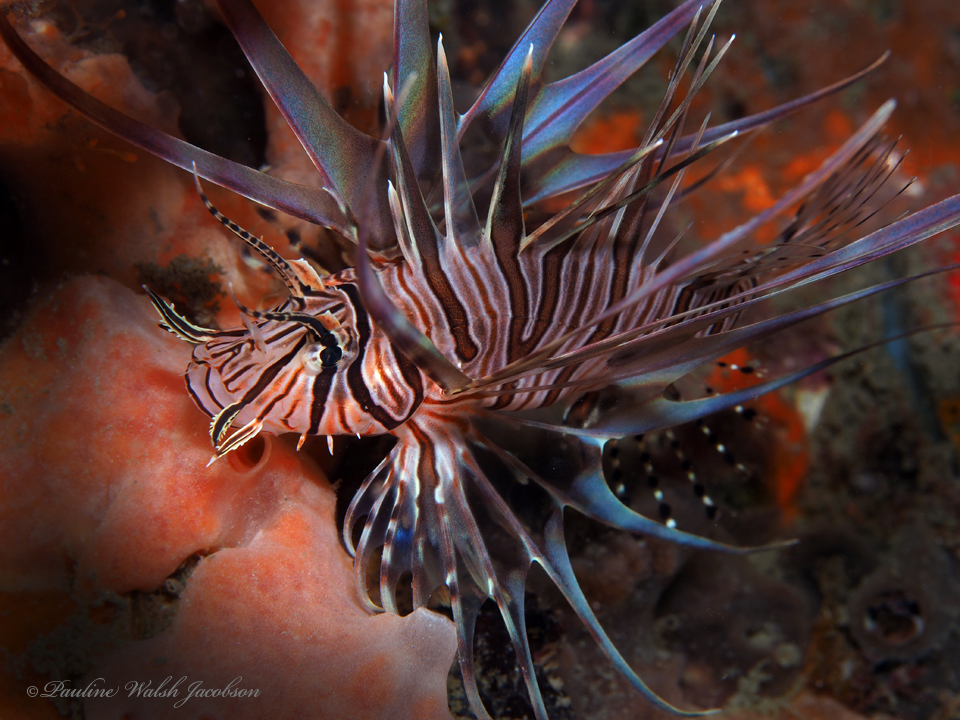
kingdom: Animalia
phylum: Chordata
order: Scorpaeniformes
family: Scorpaenidae
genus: Pterois
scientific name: Pterois volitans
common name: Lionfish
